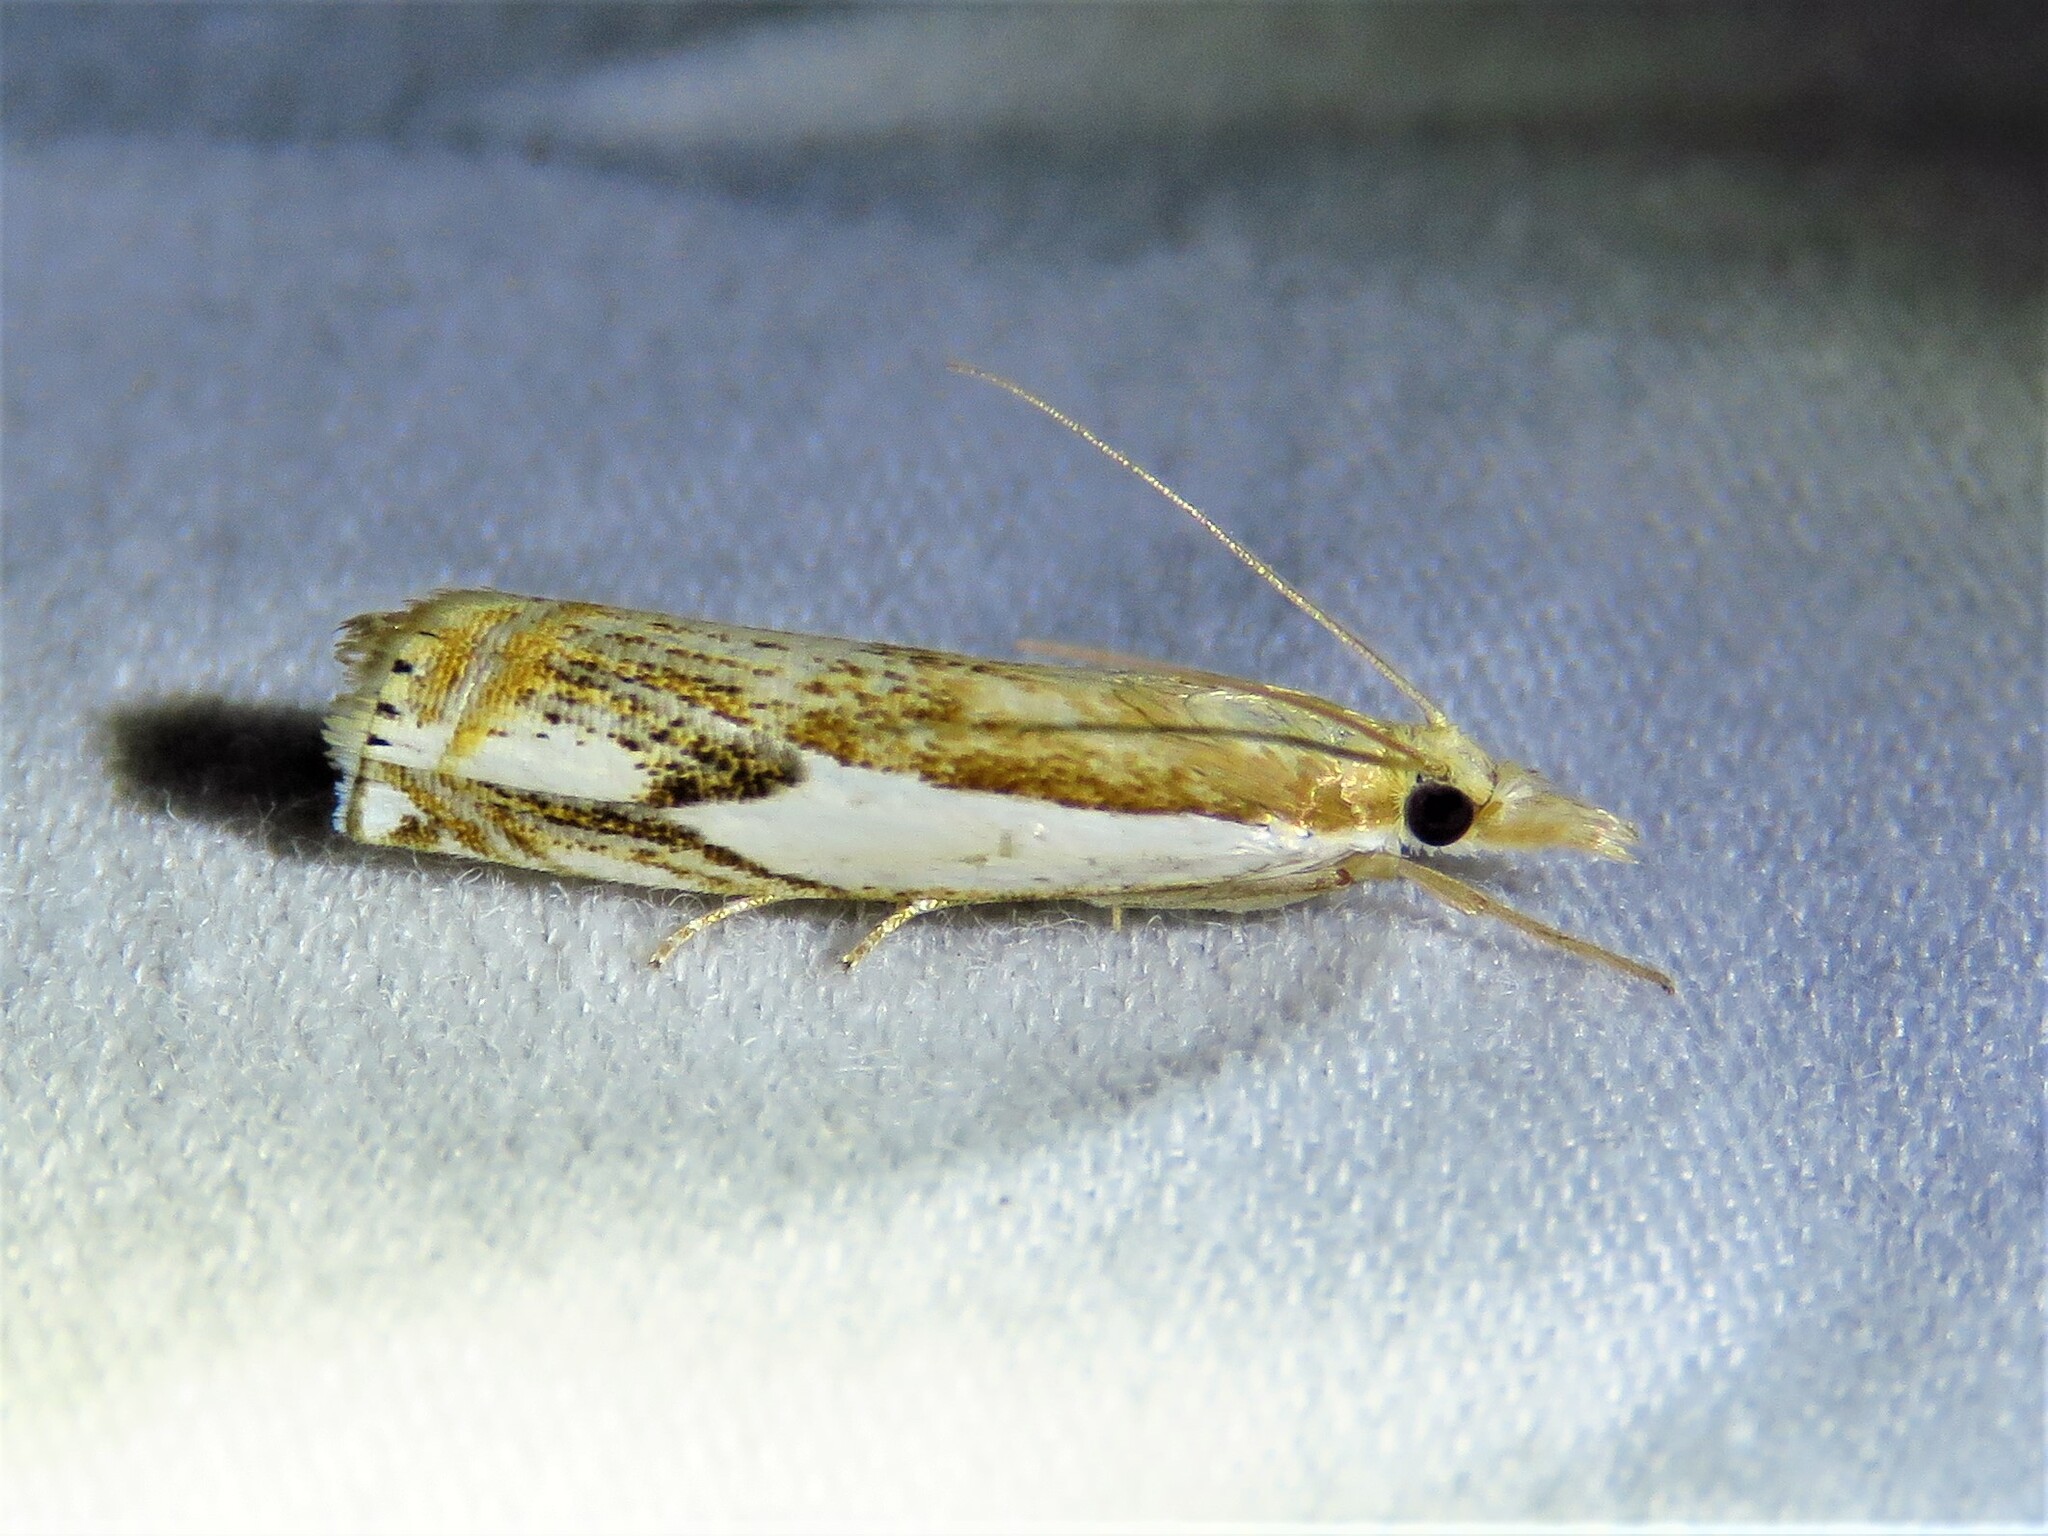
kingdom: Animalia
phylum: Arthropoda
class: Insecta
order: Lepidoptera
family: Crambidae
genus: Crambus
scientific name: Crambus agitatellus
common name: Double-banded grass-veneer
